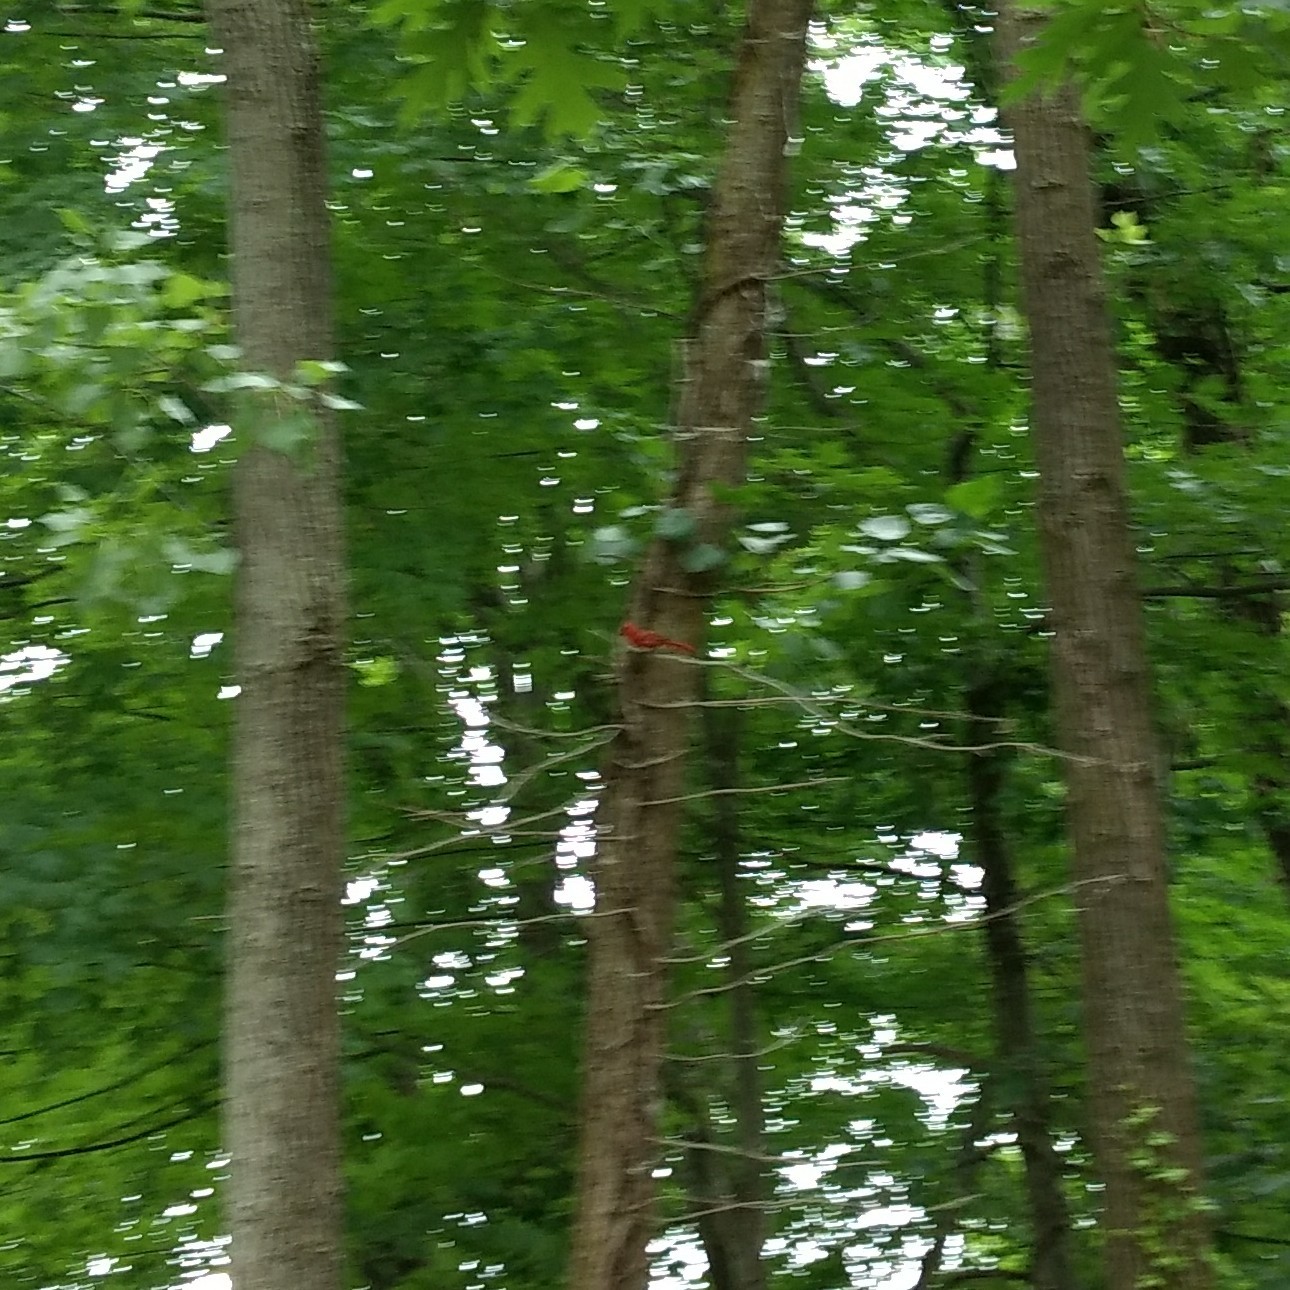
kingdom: Animalia
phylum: Chordata
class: Aves
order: Passeriformes
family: Cardinalidae
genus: Cardinalis
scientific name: Cardinalis cardinalis
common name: Northern cardinal
